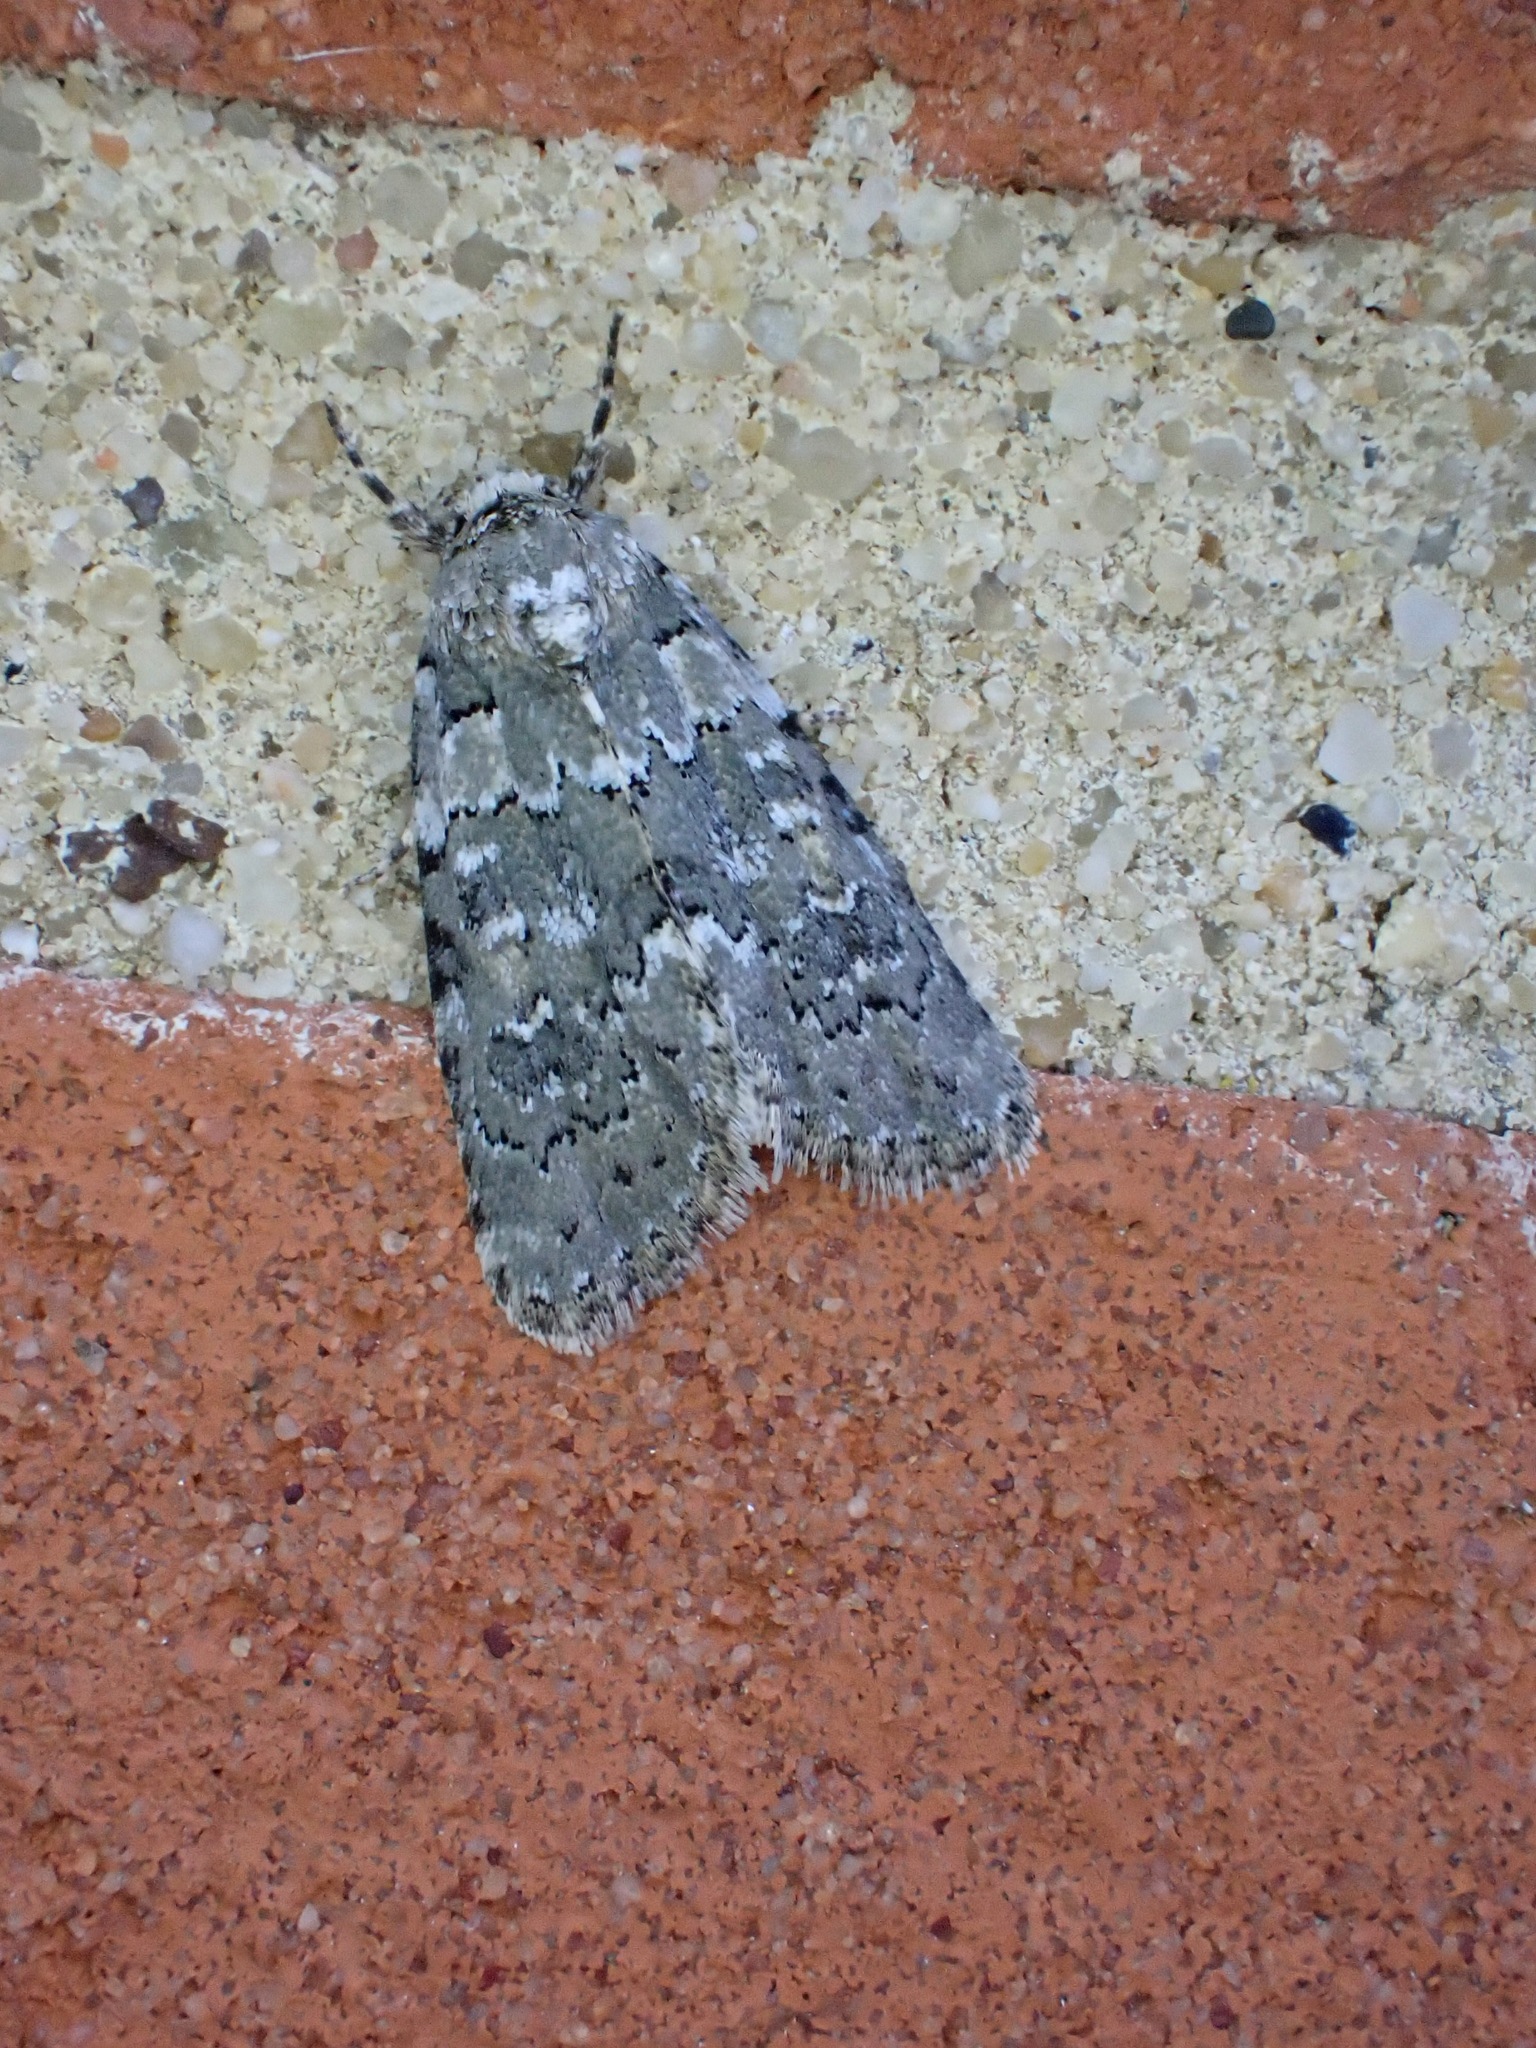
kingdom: Animalia
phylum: Arthropoda
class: Insecta
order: Lepidoptera
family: Noctuidae
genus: Bryophila
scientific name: Bryophila domestica
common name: Marbled beauty
